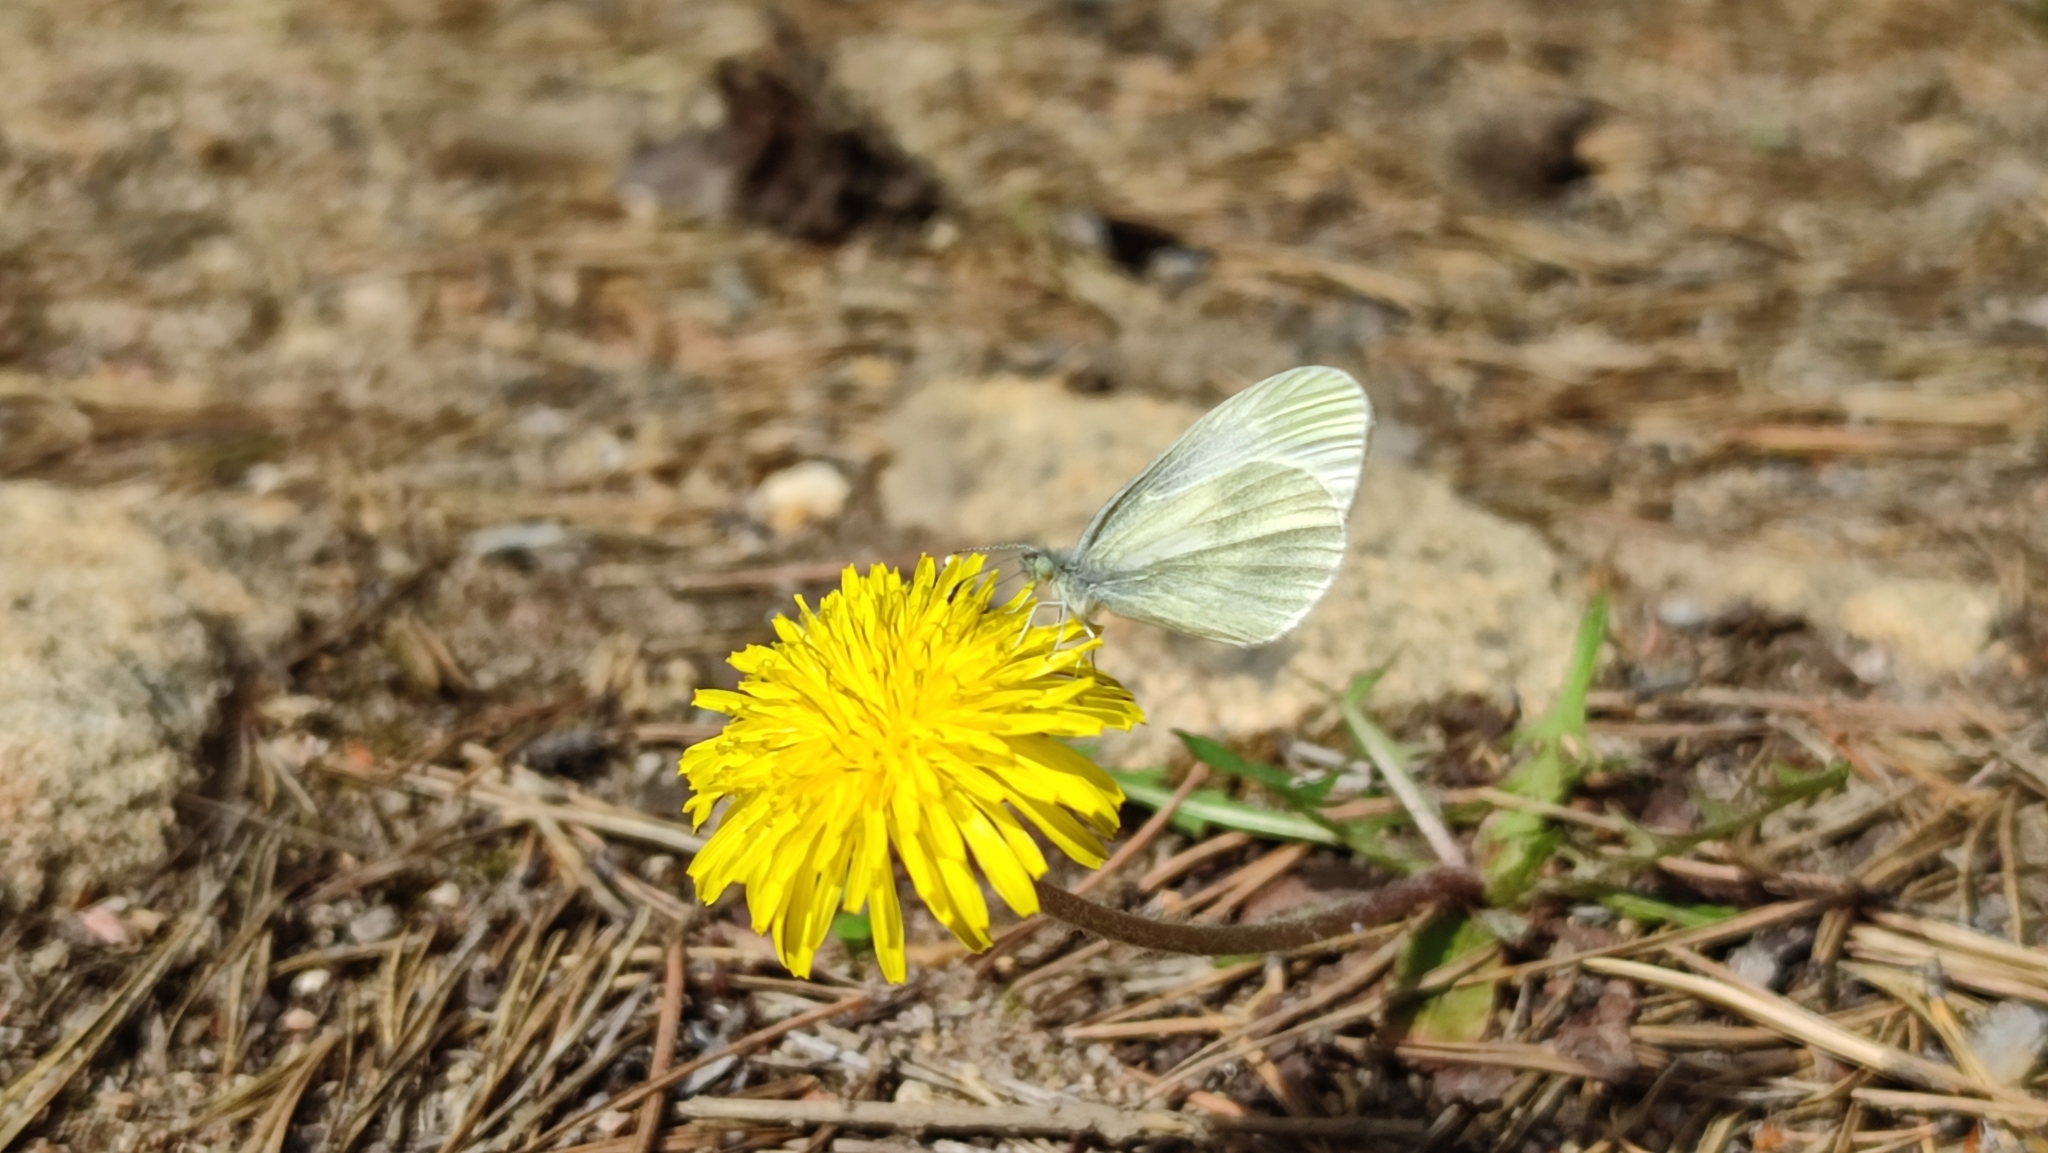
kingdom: Animalia
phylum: Arthropoda
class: Insecta
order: Lepidoptera
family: Pieridae
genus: Leptidea
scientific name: Leptidea sinapis
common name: Wood white
